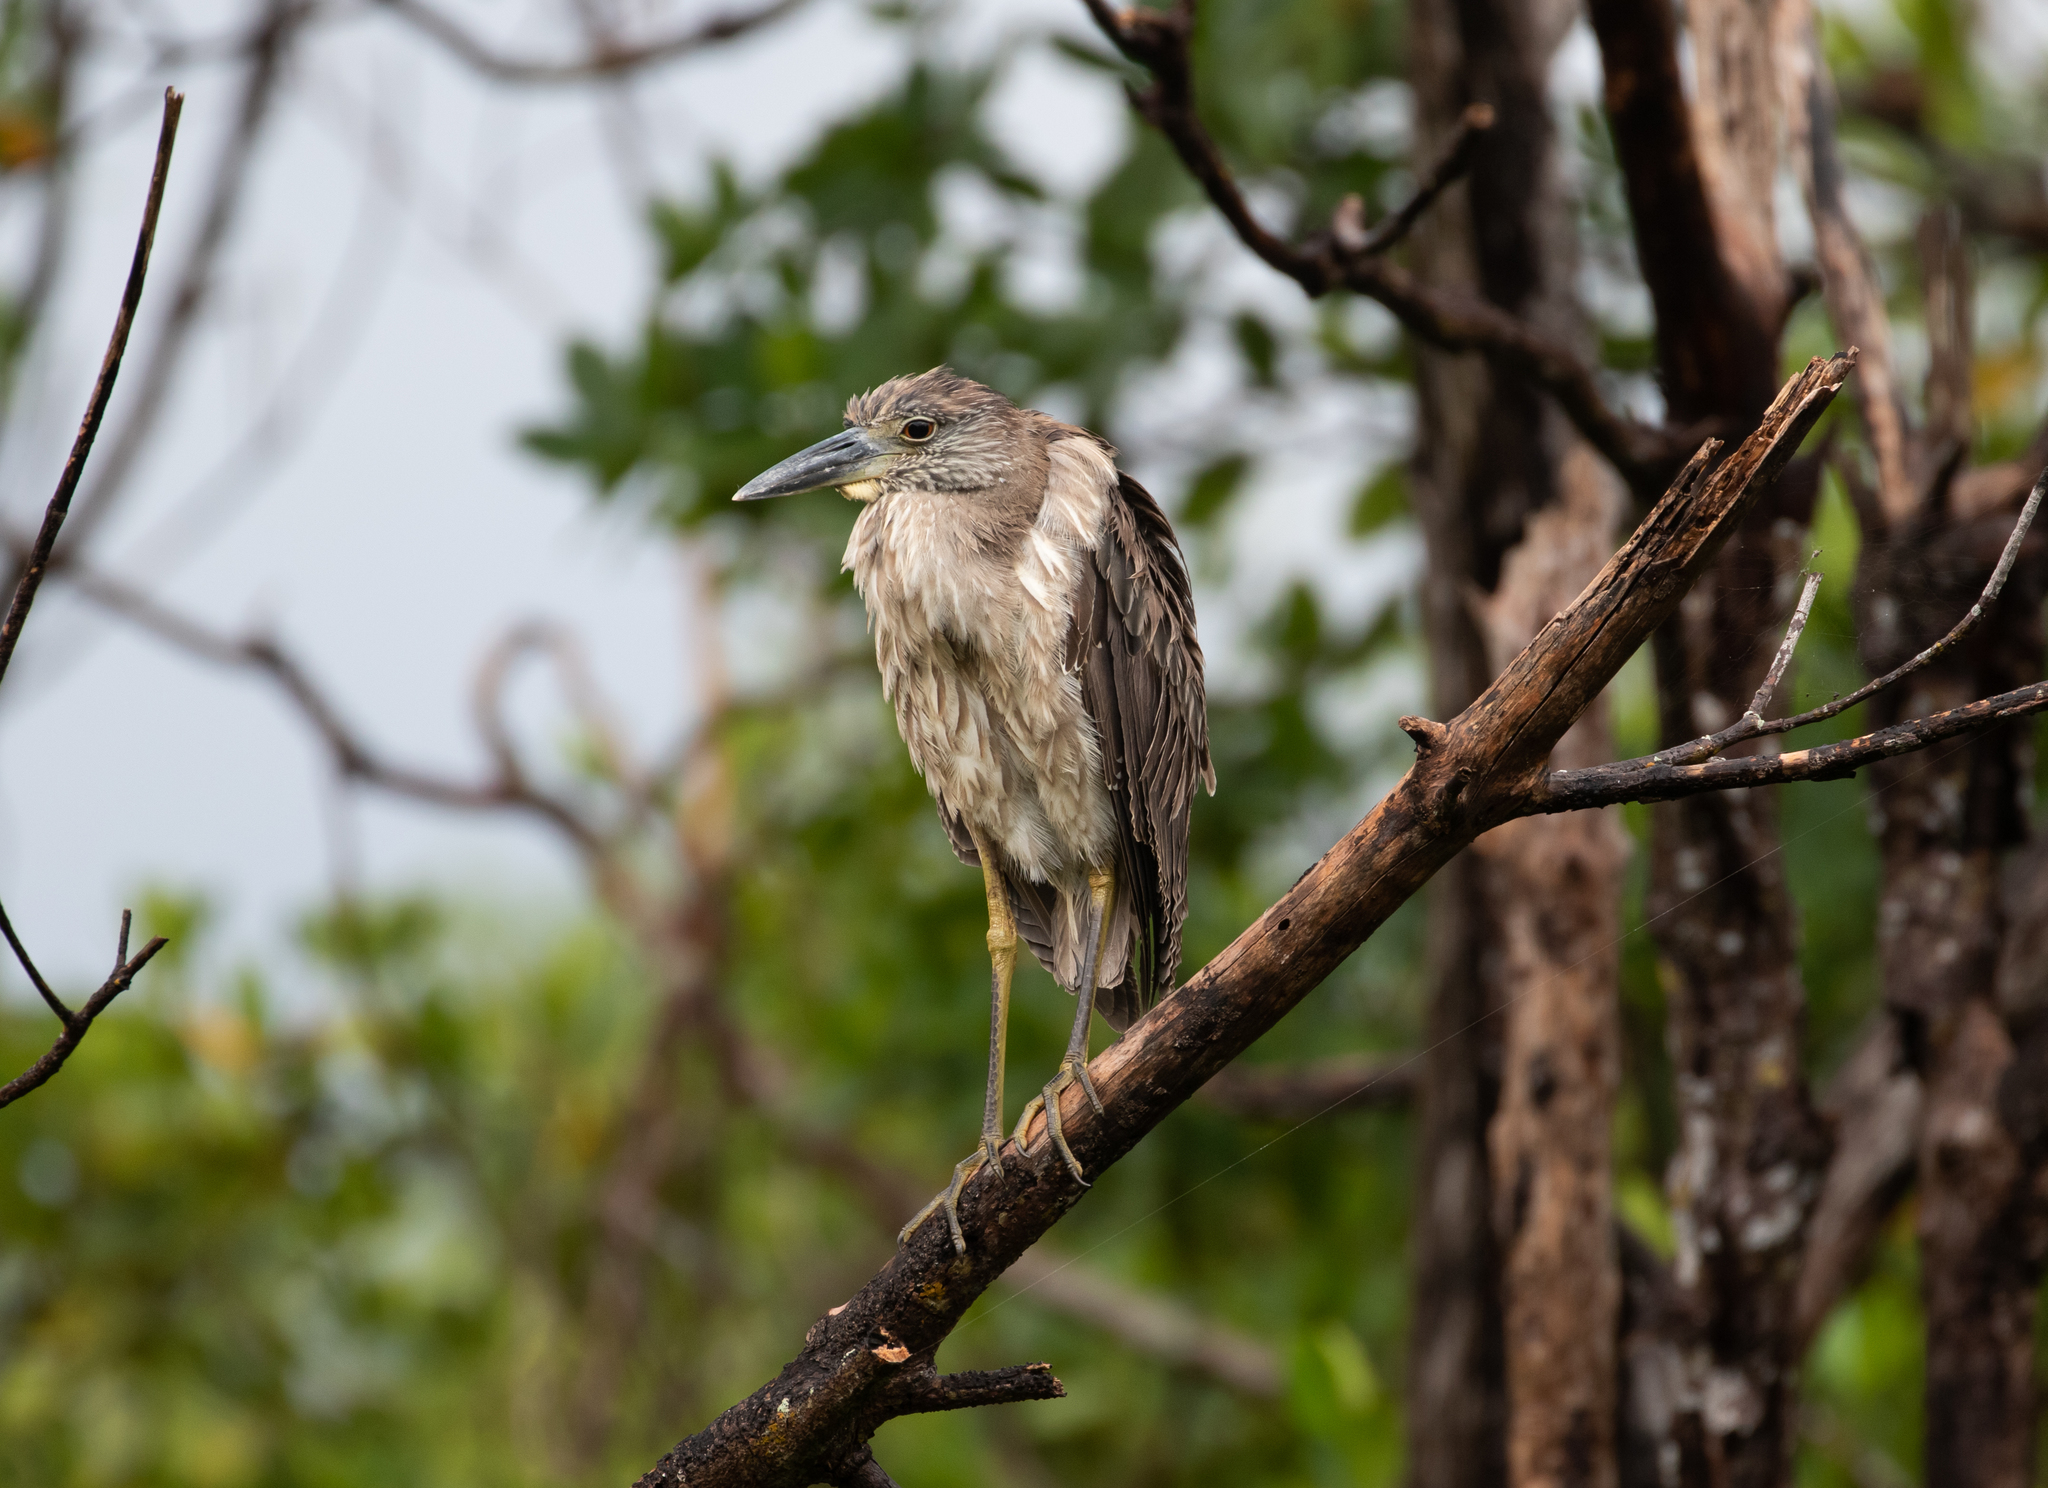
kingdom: Animalia
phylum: Chordata
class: Aves
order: Pelecaniformes
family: Ardeidae
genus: Nyctanassa
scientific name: Nyctanassa violacea
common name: Yellow-crowned night heron
